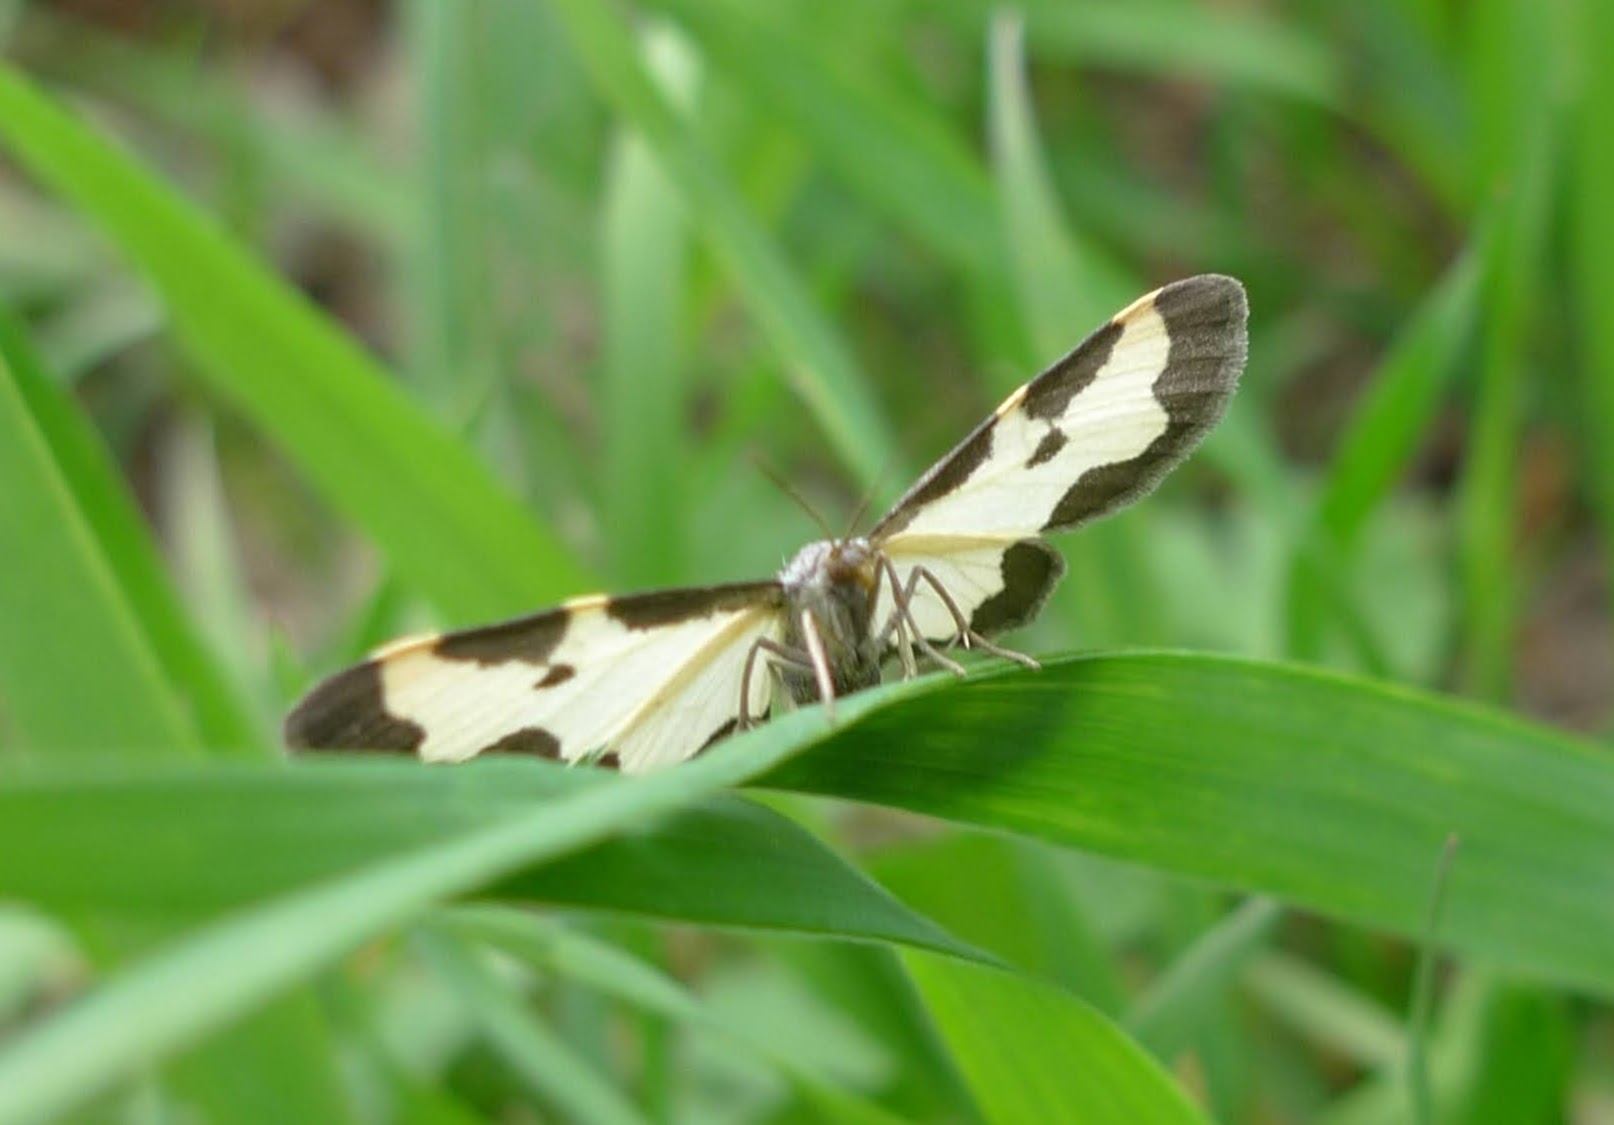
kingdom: Animalia
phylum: Arthropoda
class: Insecta
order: Lepidoptera
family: Geometridae
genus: Lomaspilis
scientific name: Lomaspilis marginata
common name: Clouded border
